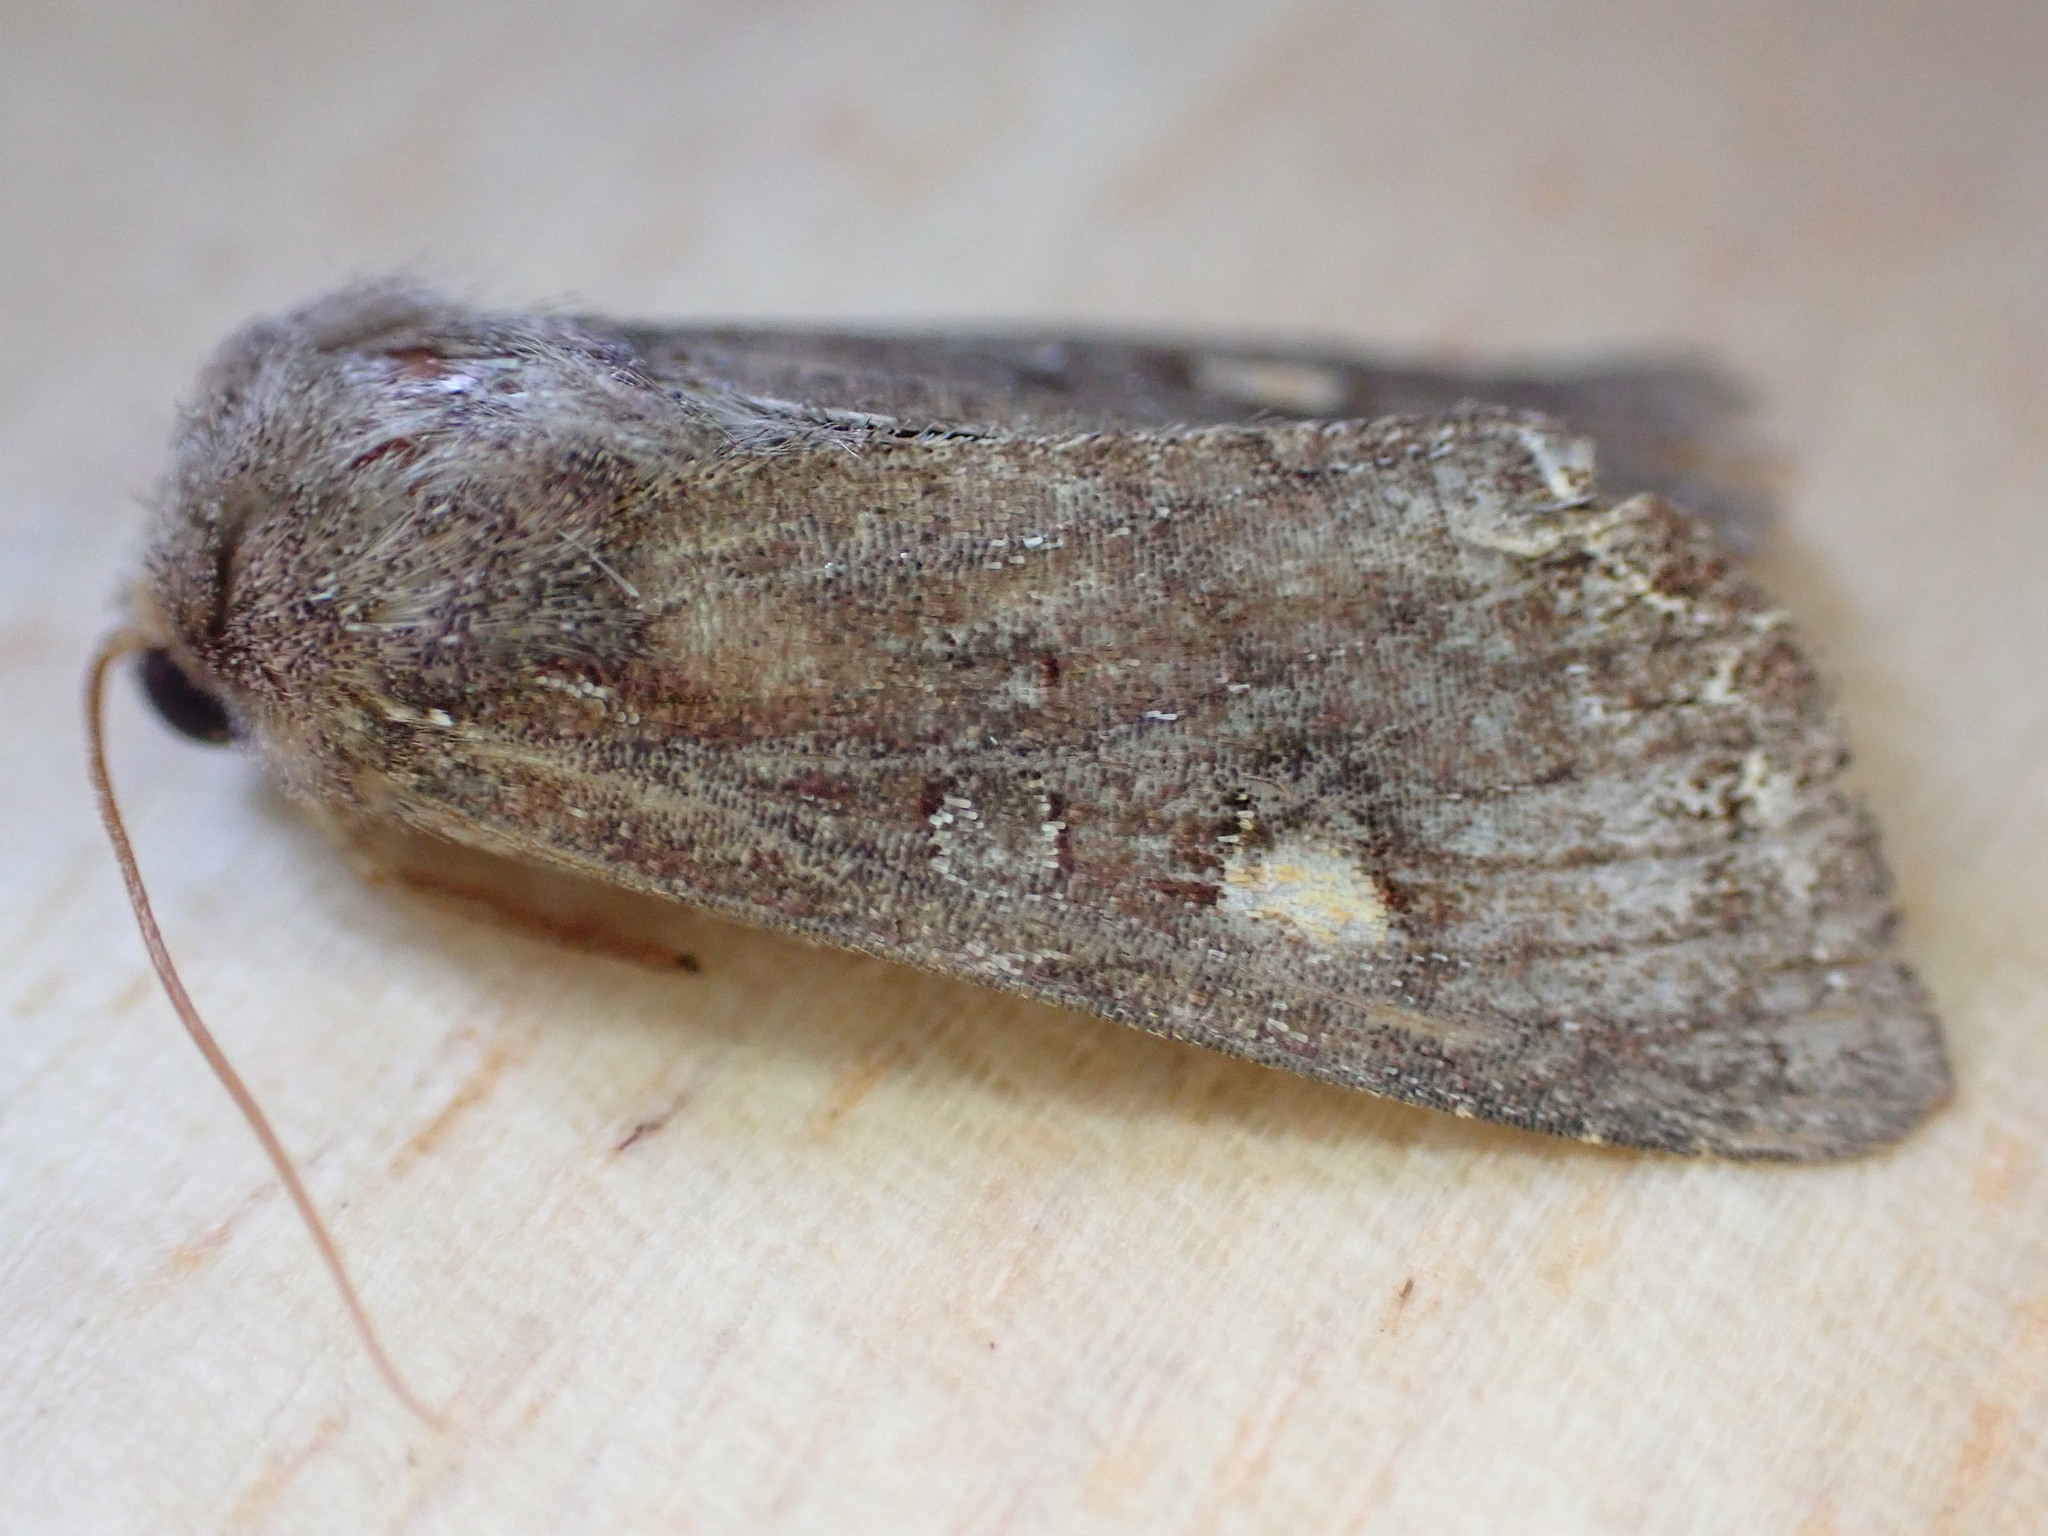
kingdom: Animalia
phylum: Arthropoda
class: Insecta
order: Lepidoptera
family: Noctuidae
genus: Lacanobia
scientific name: Lacanobia oleracea
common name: Bright-line brown-eye
